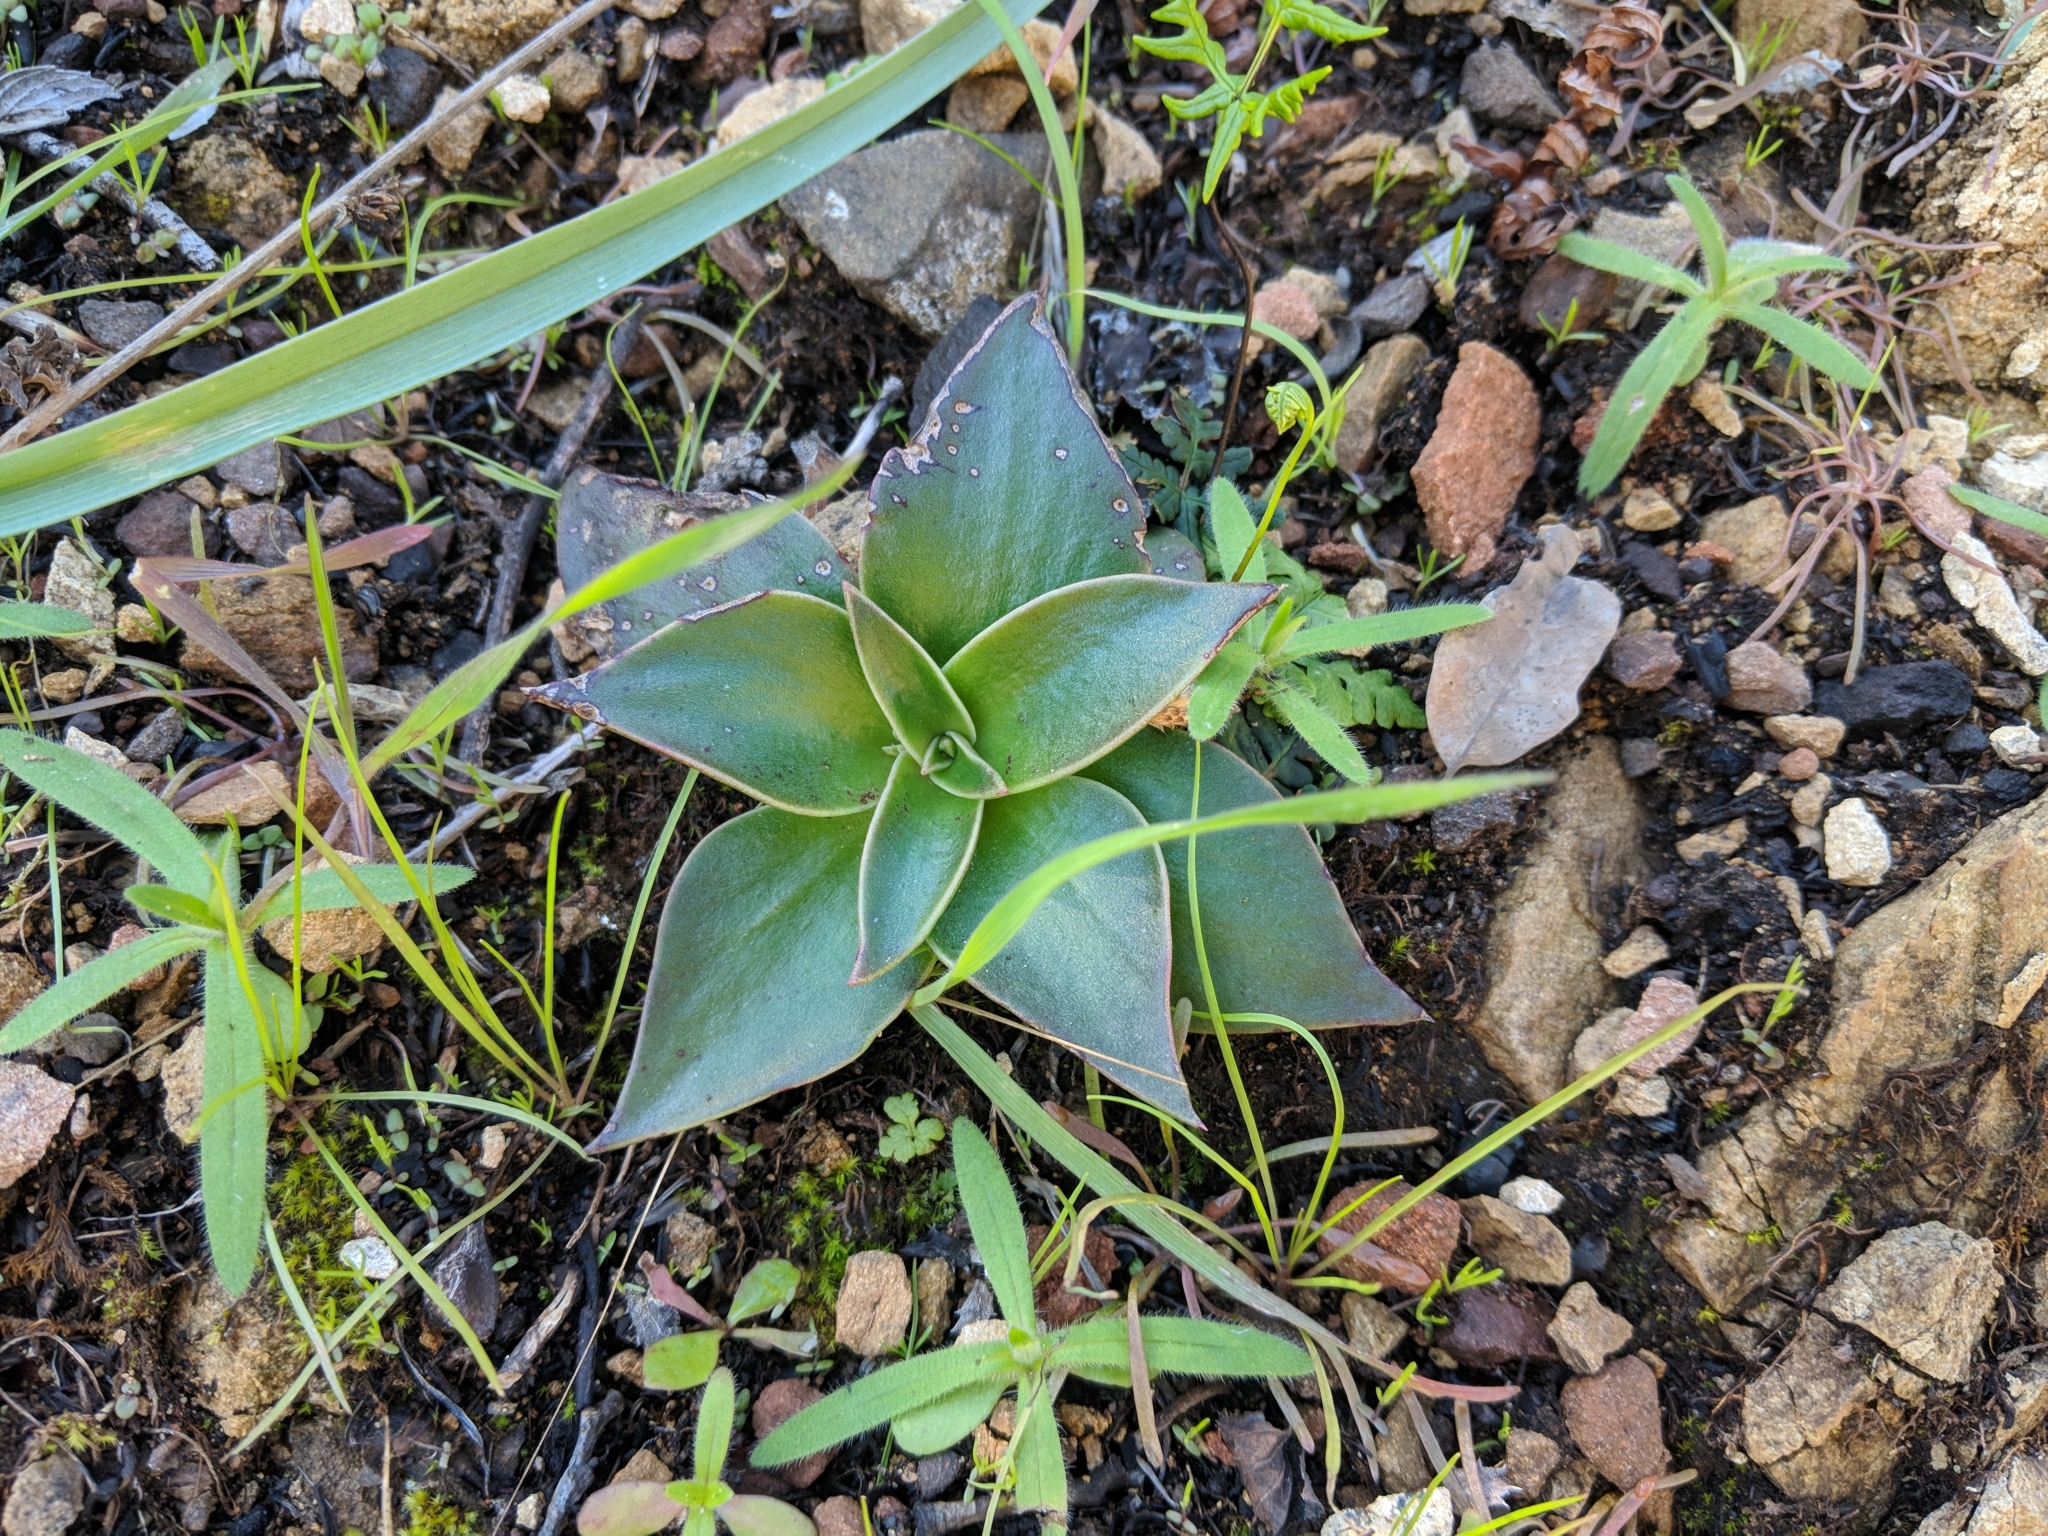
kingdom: Plantae
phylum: Tracheophyta
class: Magnoliopsida
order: Saxifragales
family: Crassulaceae
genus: Dudleya
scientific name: Dudleya cymosa
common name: Canyon dudleya
